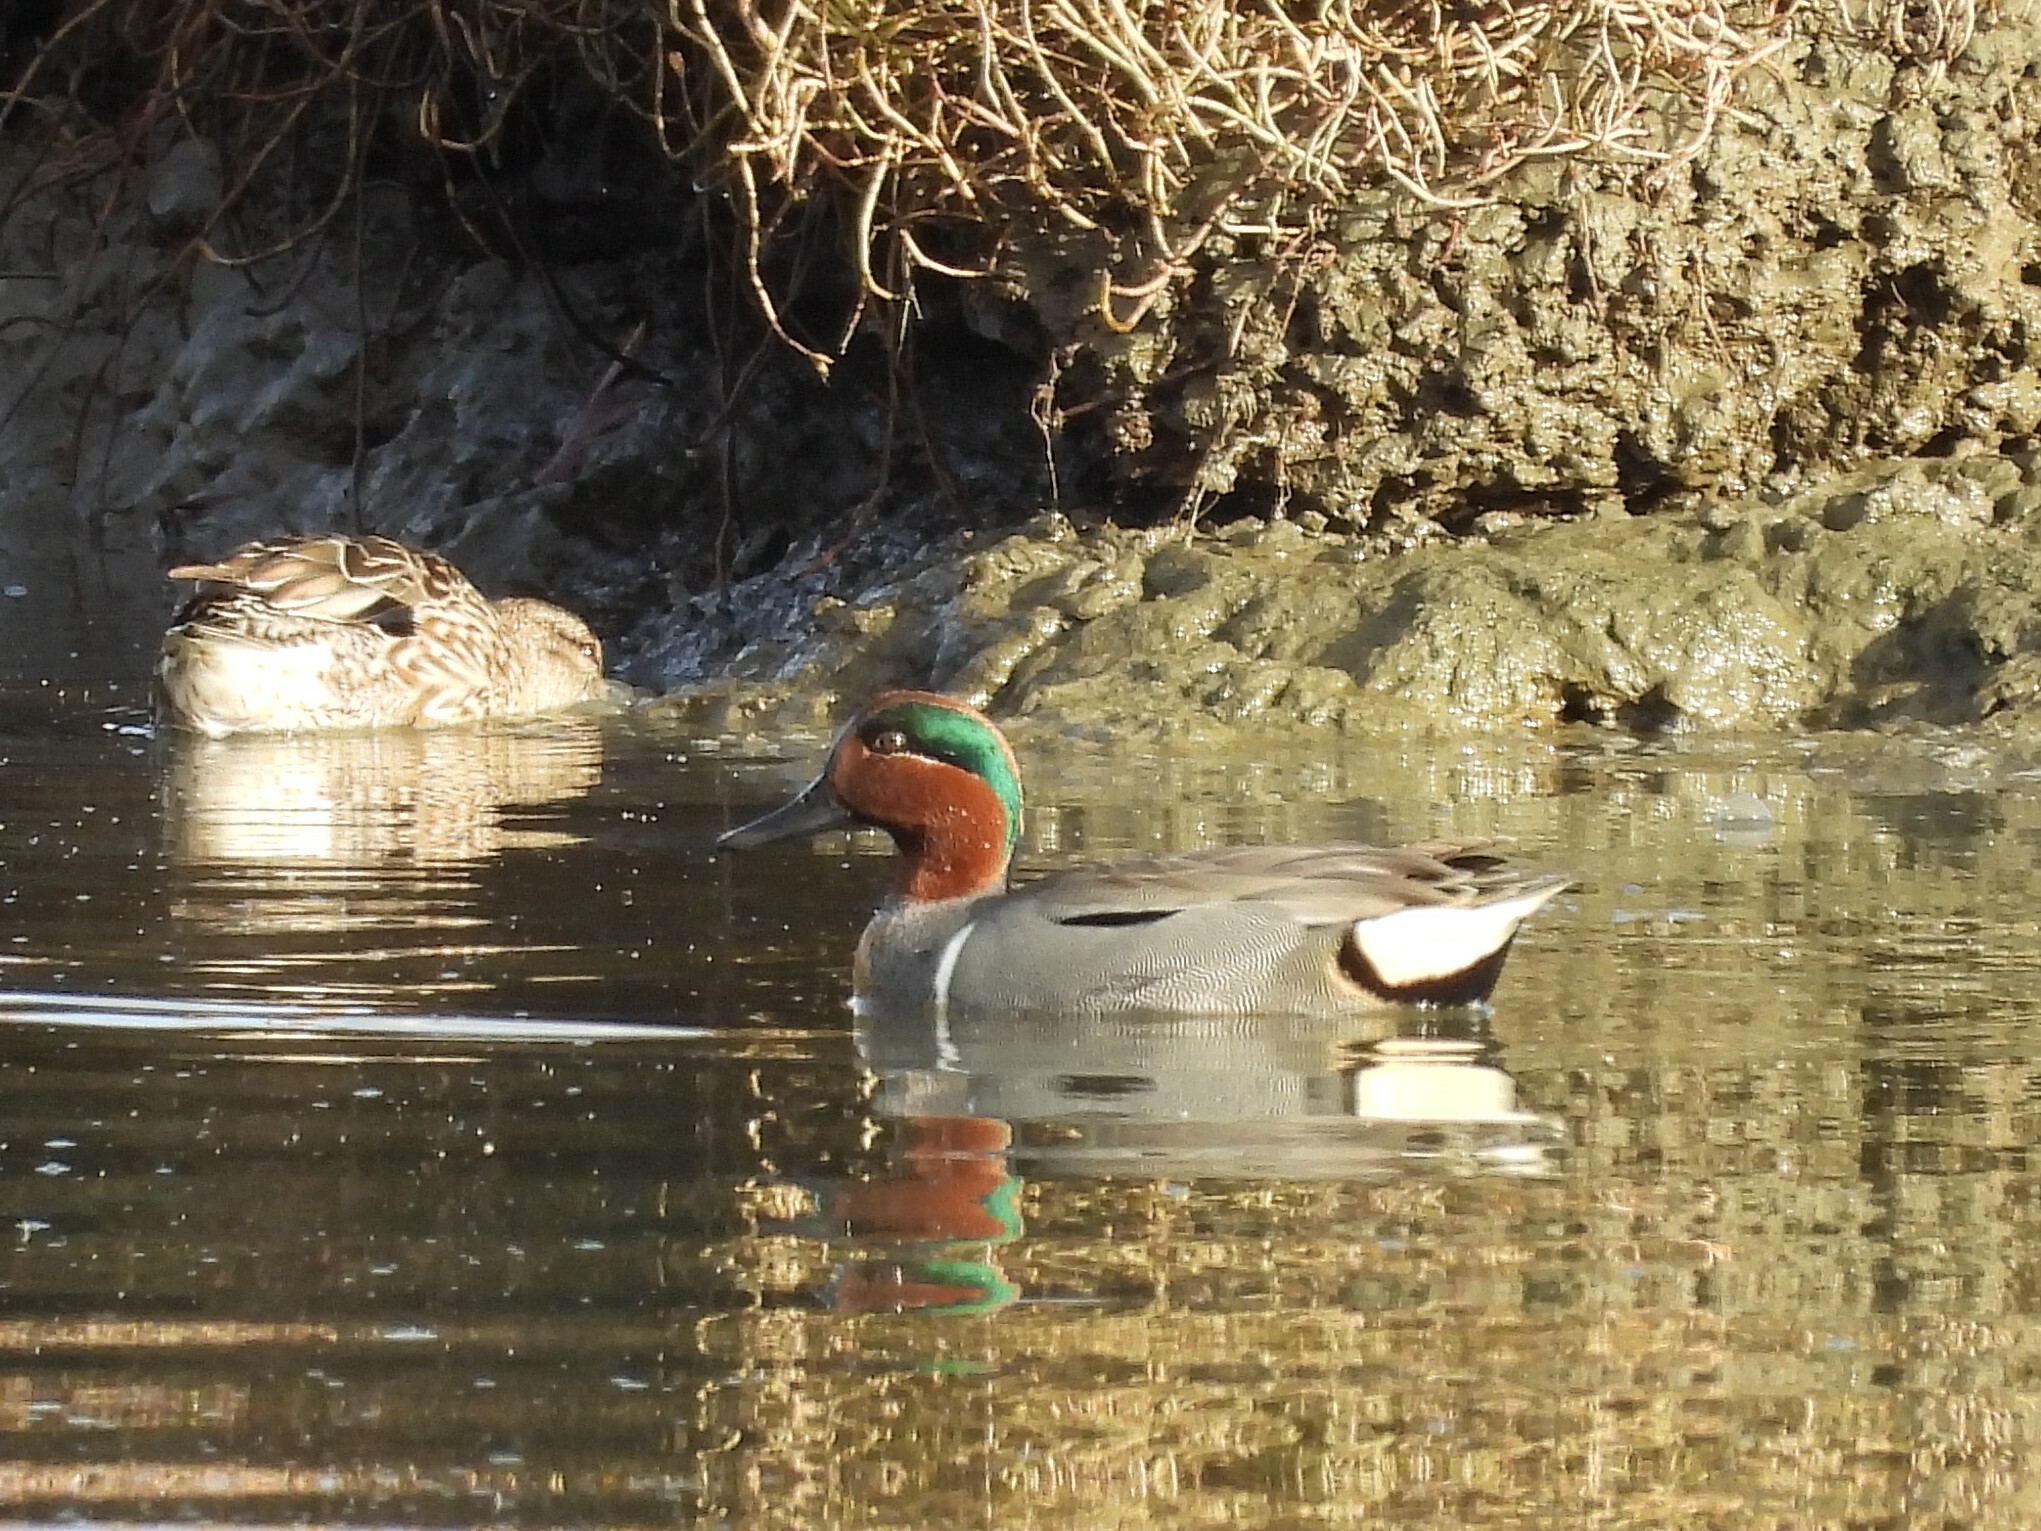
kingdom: Animalia
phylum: Chordata
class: Aves
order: Anseriformes
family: Anatidae
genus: Anas
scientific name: Anas crecca
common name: Eurasian teal
